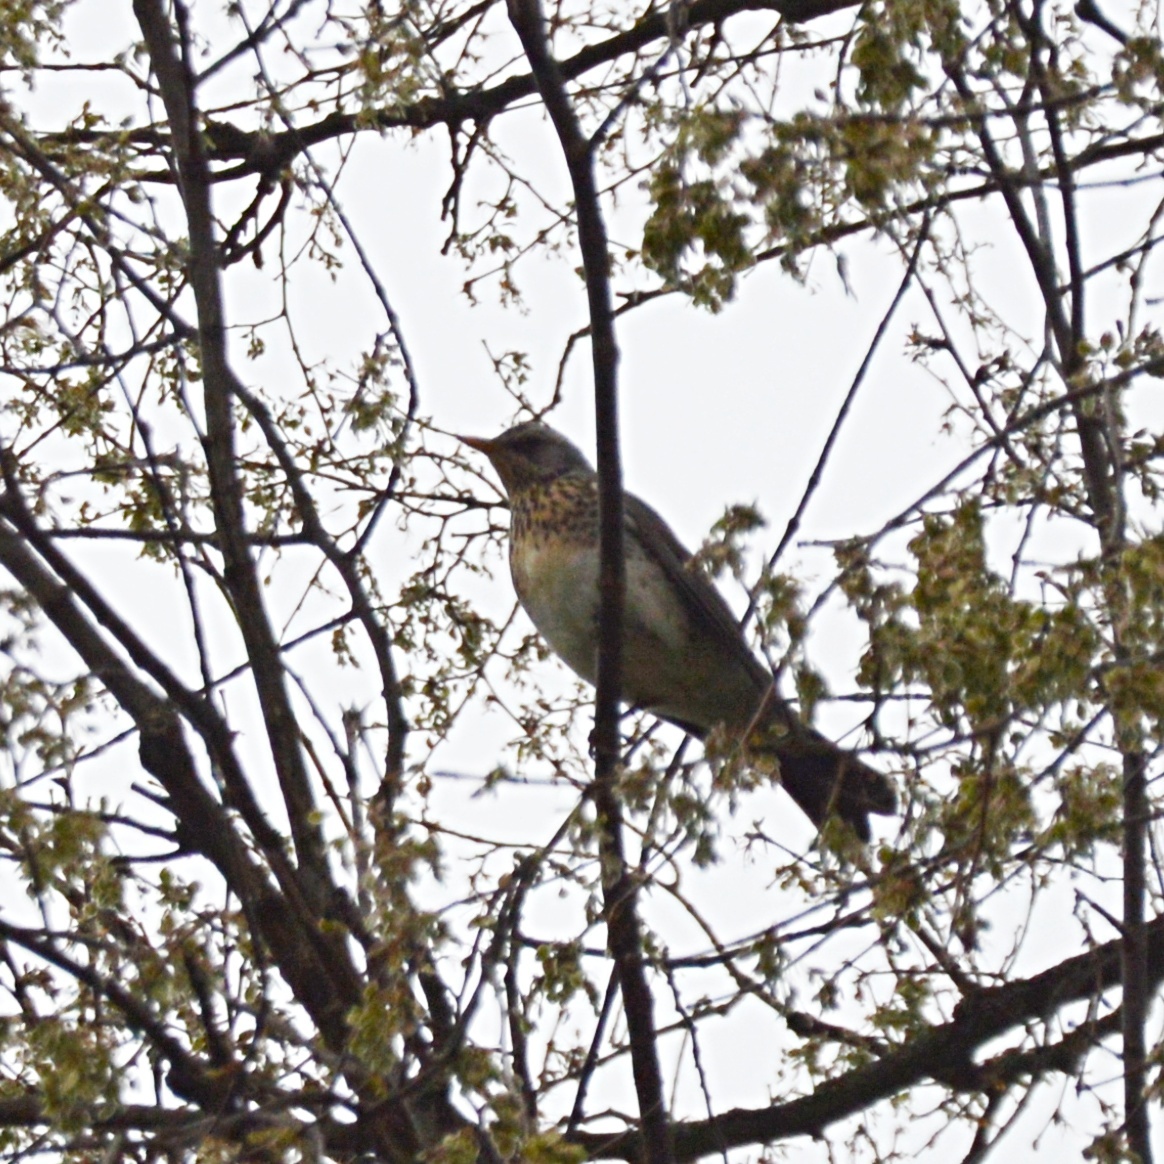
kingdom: Animalia
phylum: Chordata
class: Aves
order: Passeriformes
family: Turdidae
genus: Turdus
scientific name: Turdus pilaris
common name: Fieldfare
